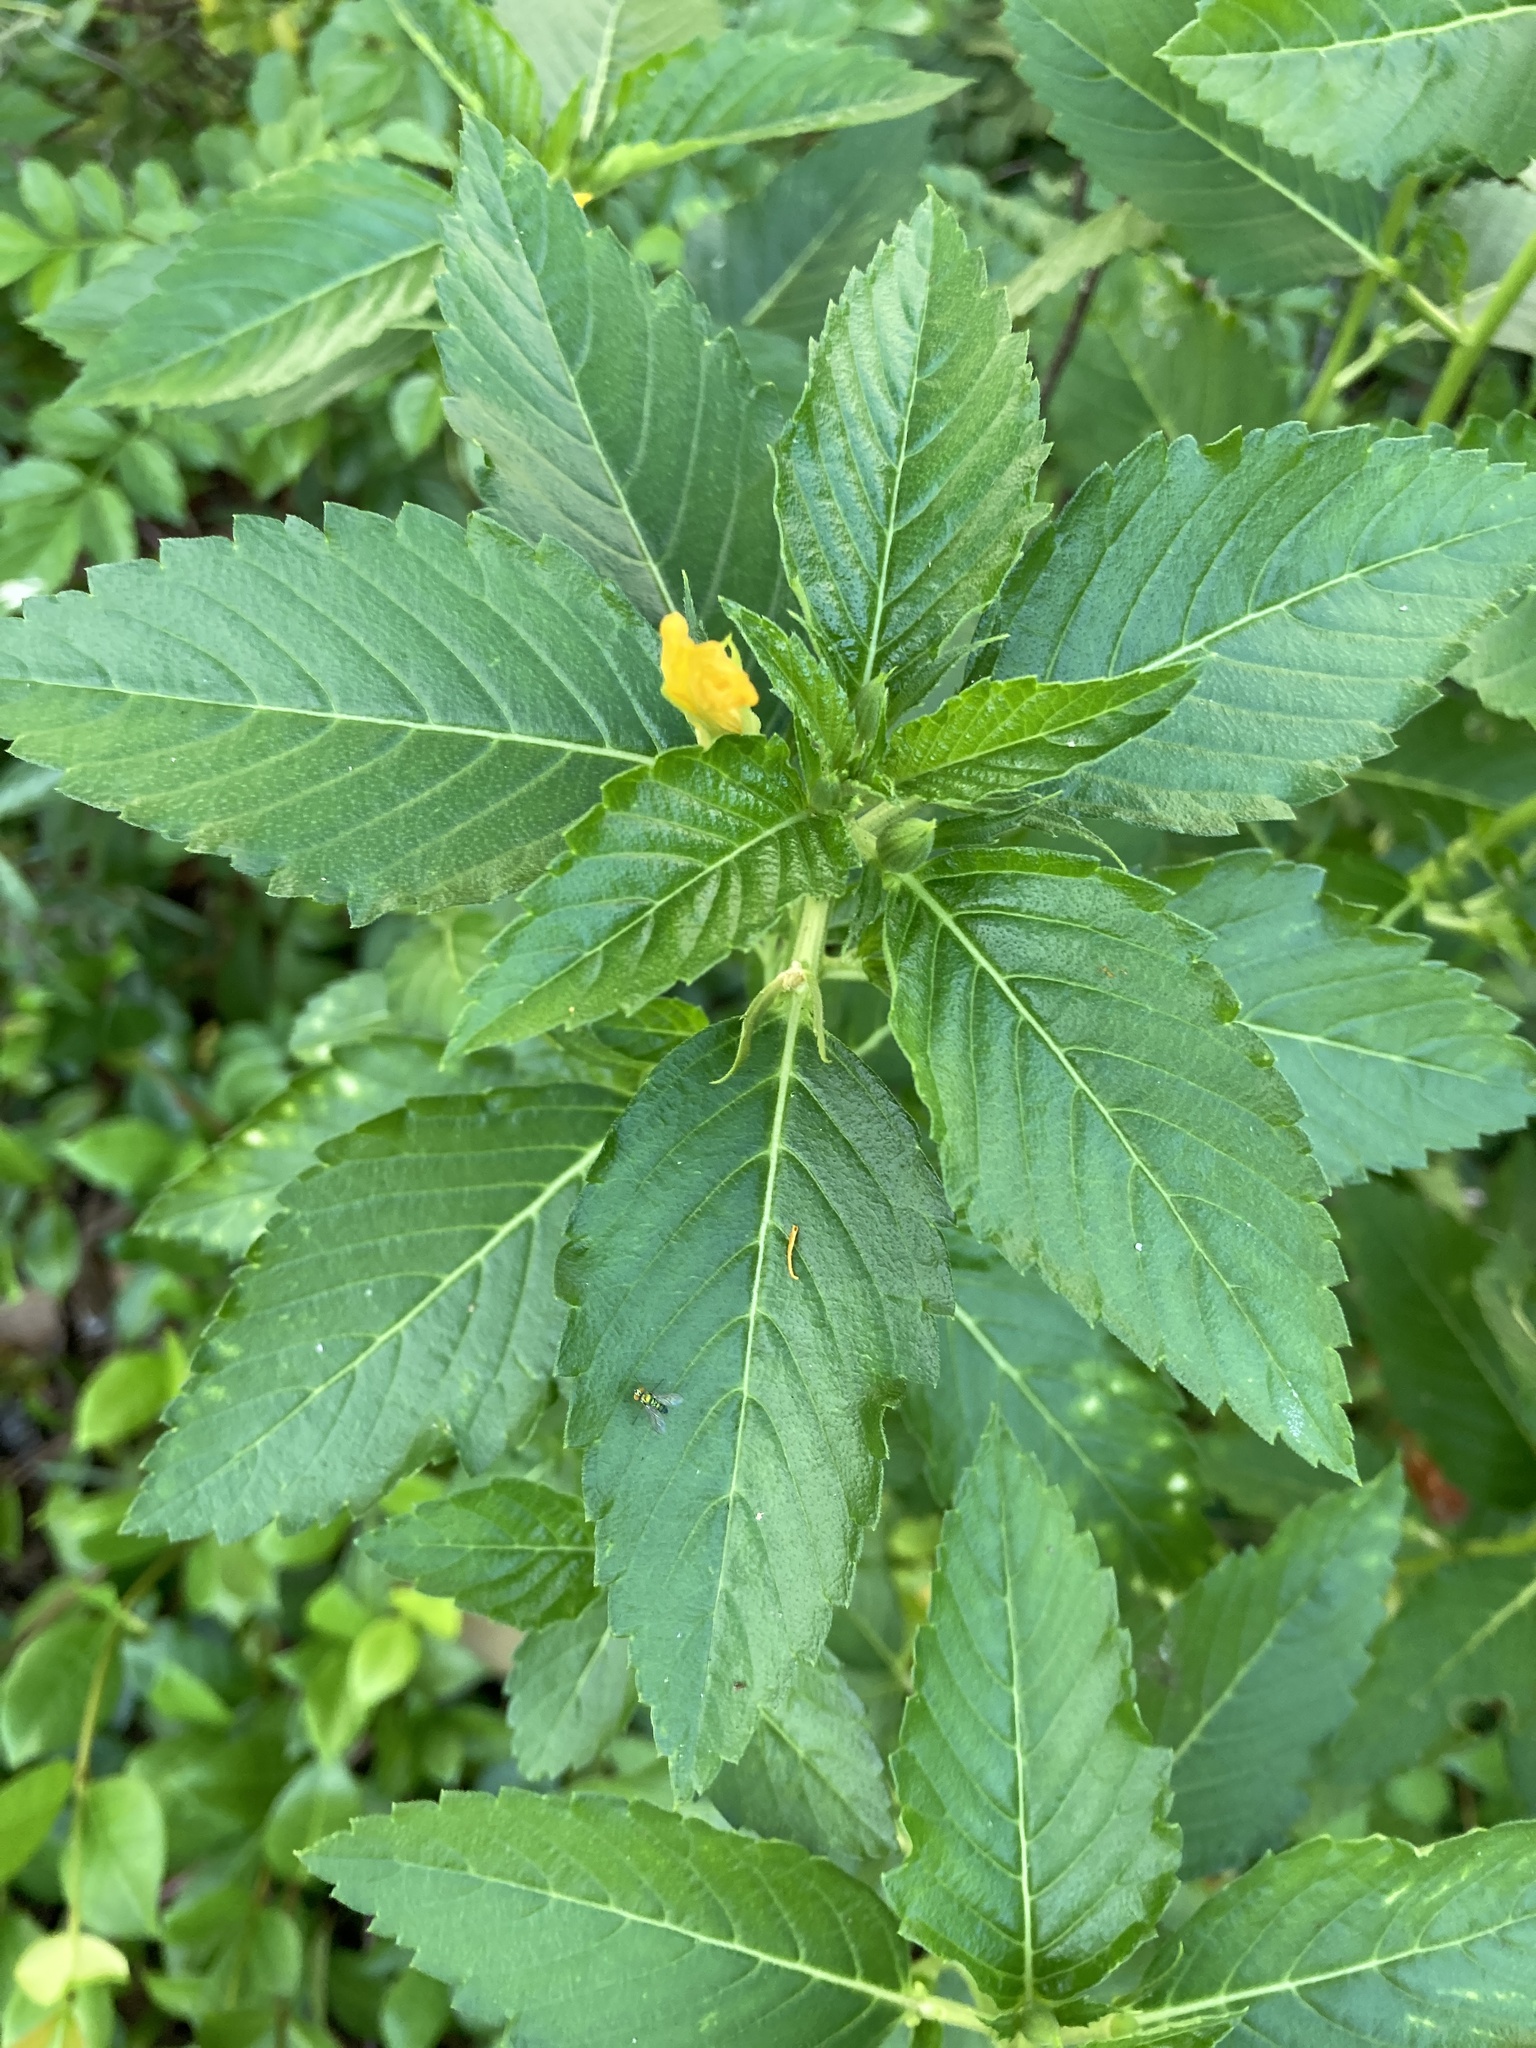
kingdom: Plantae
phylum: Tracheophyta
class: Magnoliopsida
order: Malpighiales
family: Turneraceae
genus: Turnera
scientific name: Turnera ulmifolia
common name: Ramgoat dashalong
